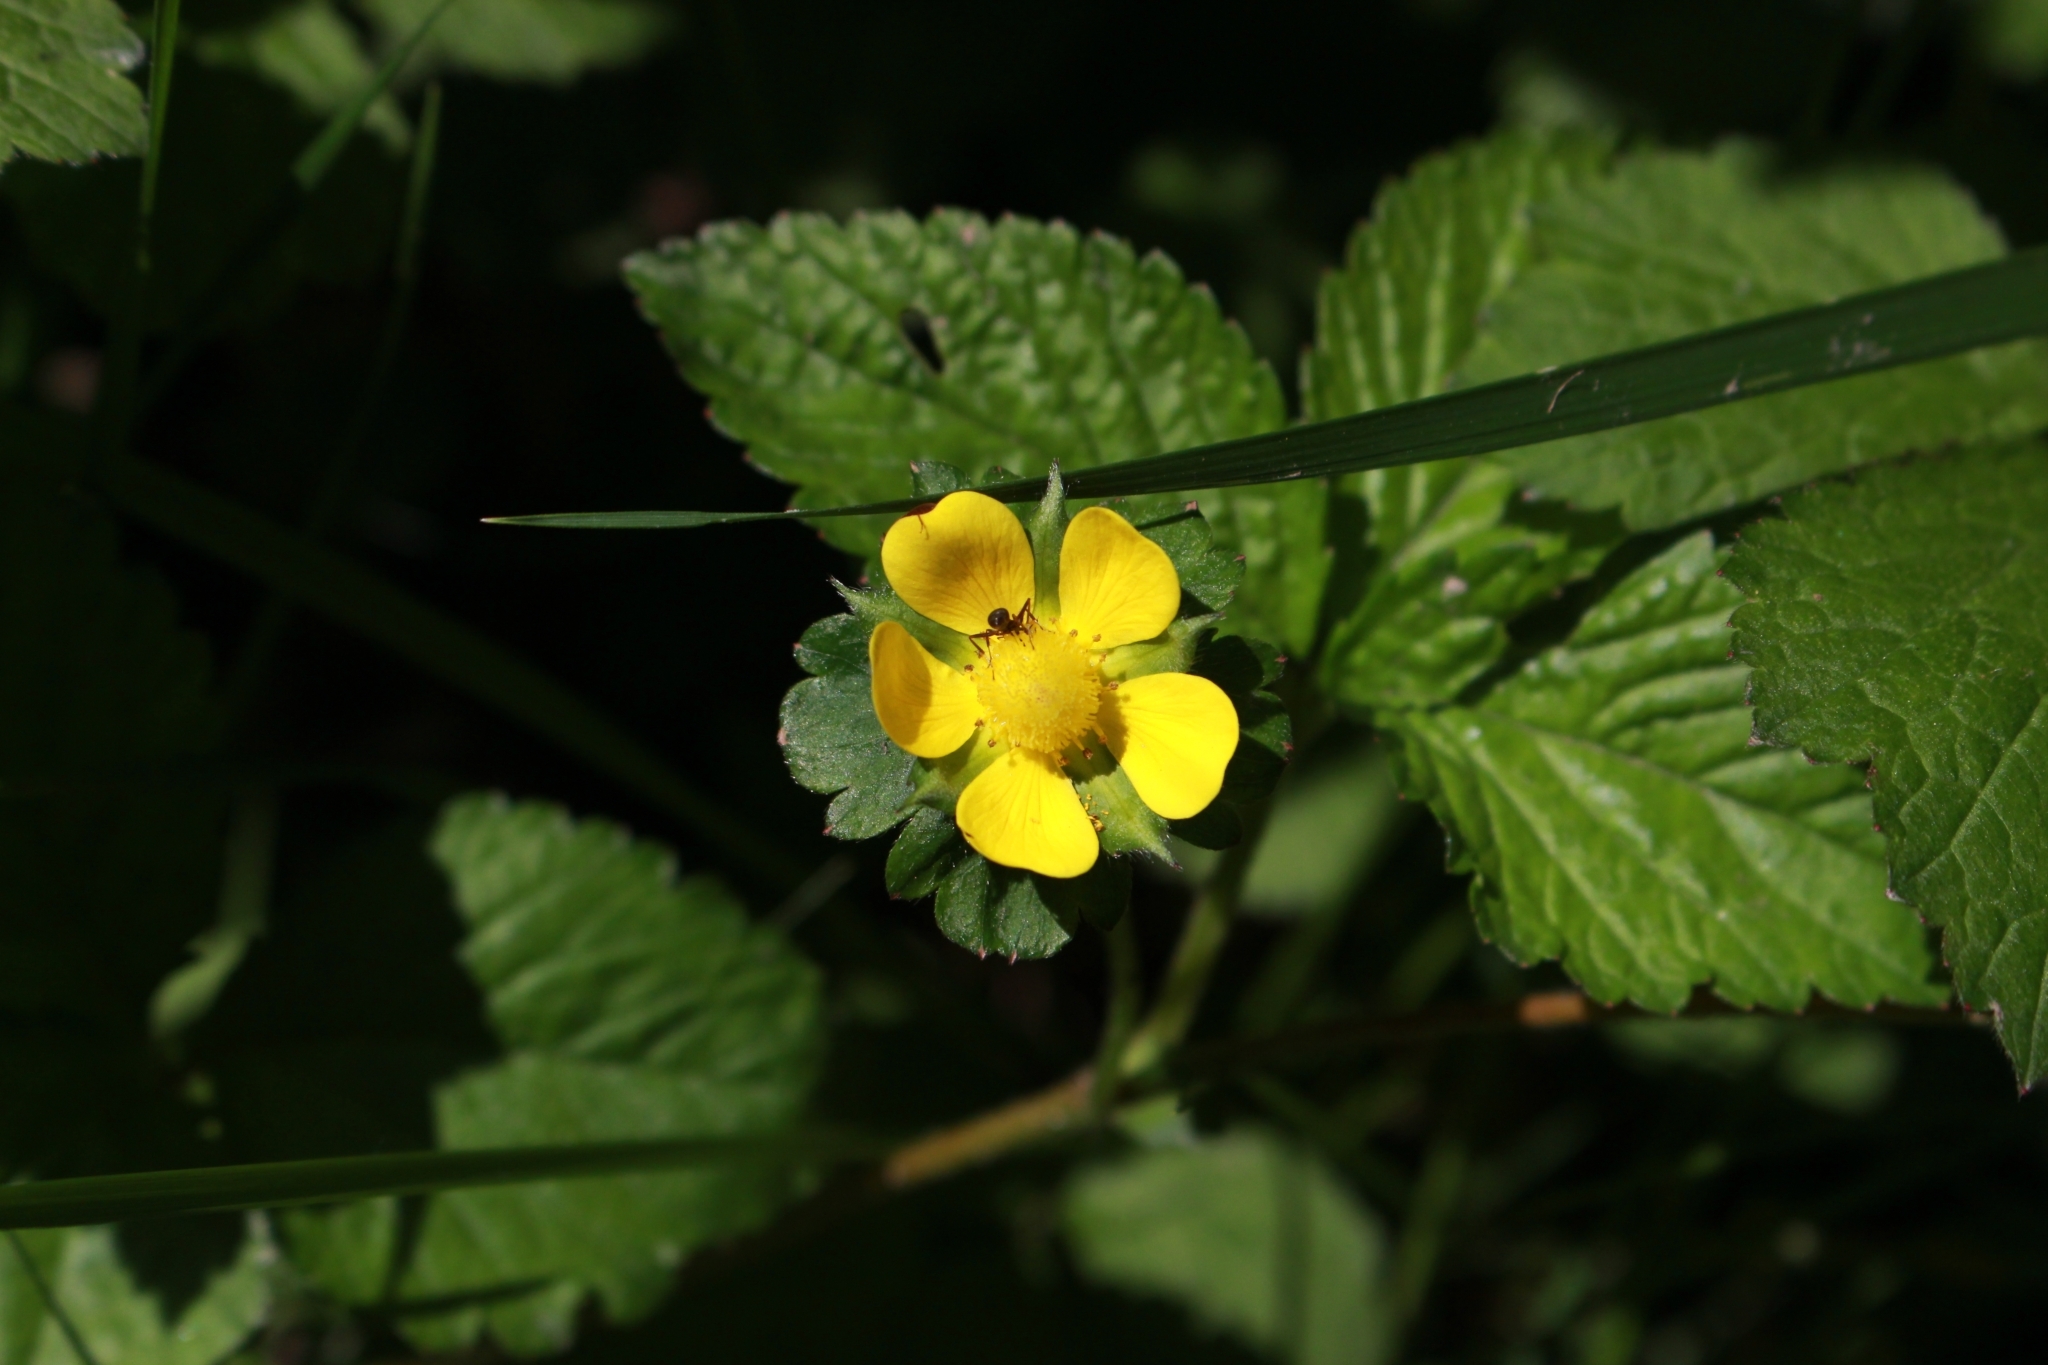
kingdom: Plantae
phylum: Tracheophyta
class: Magnoliopsida
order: Rosales
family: Rosaceae
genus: Potentilla
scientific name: Potentilla indica
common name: Yellow-flowered strawberry
